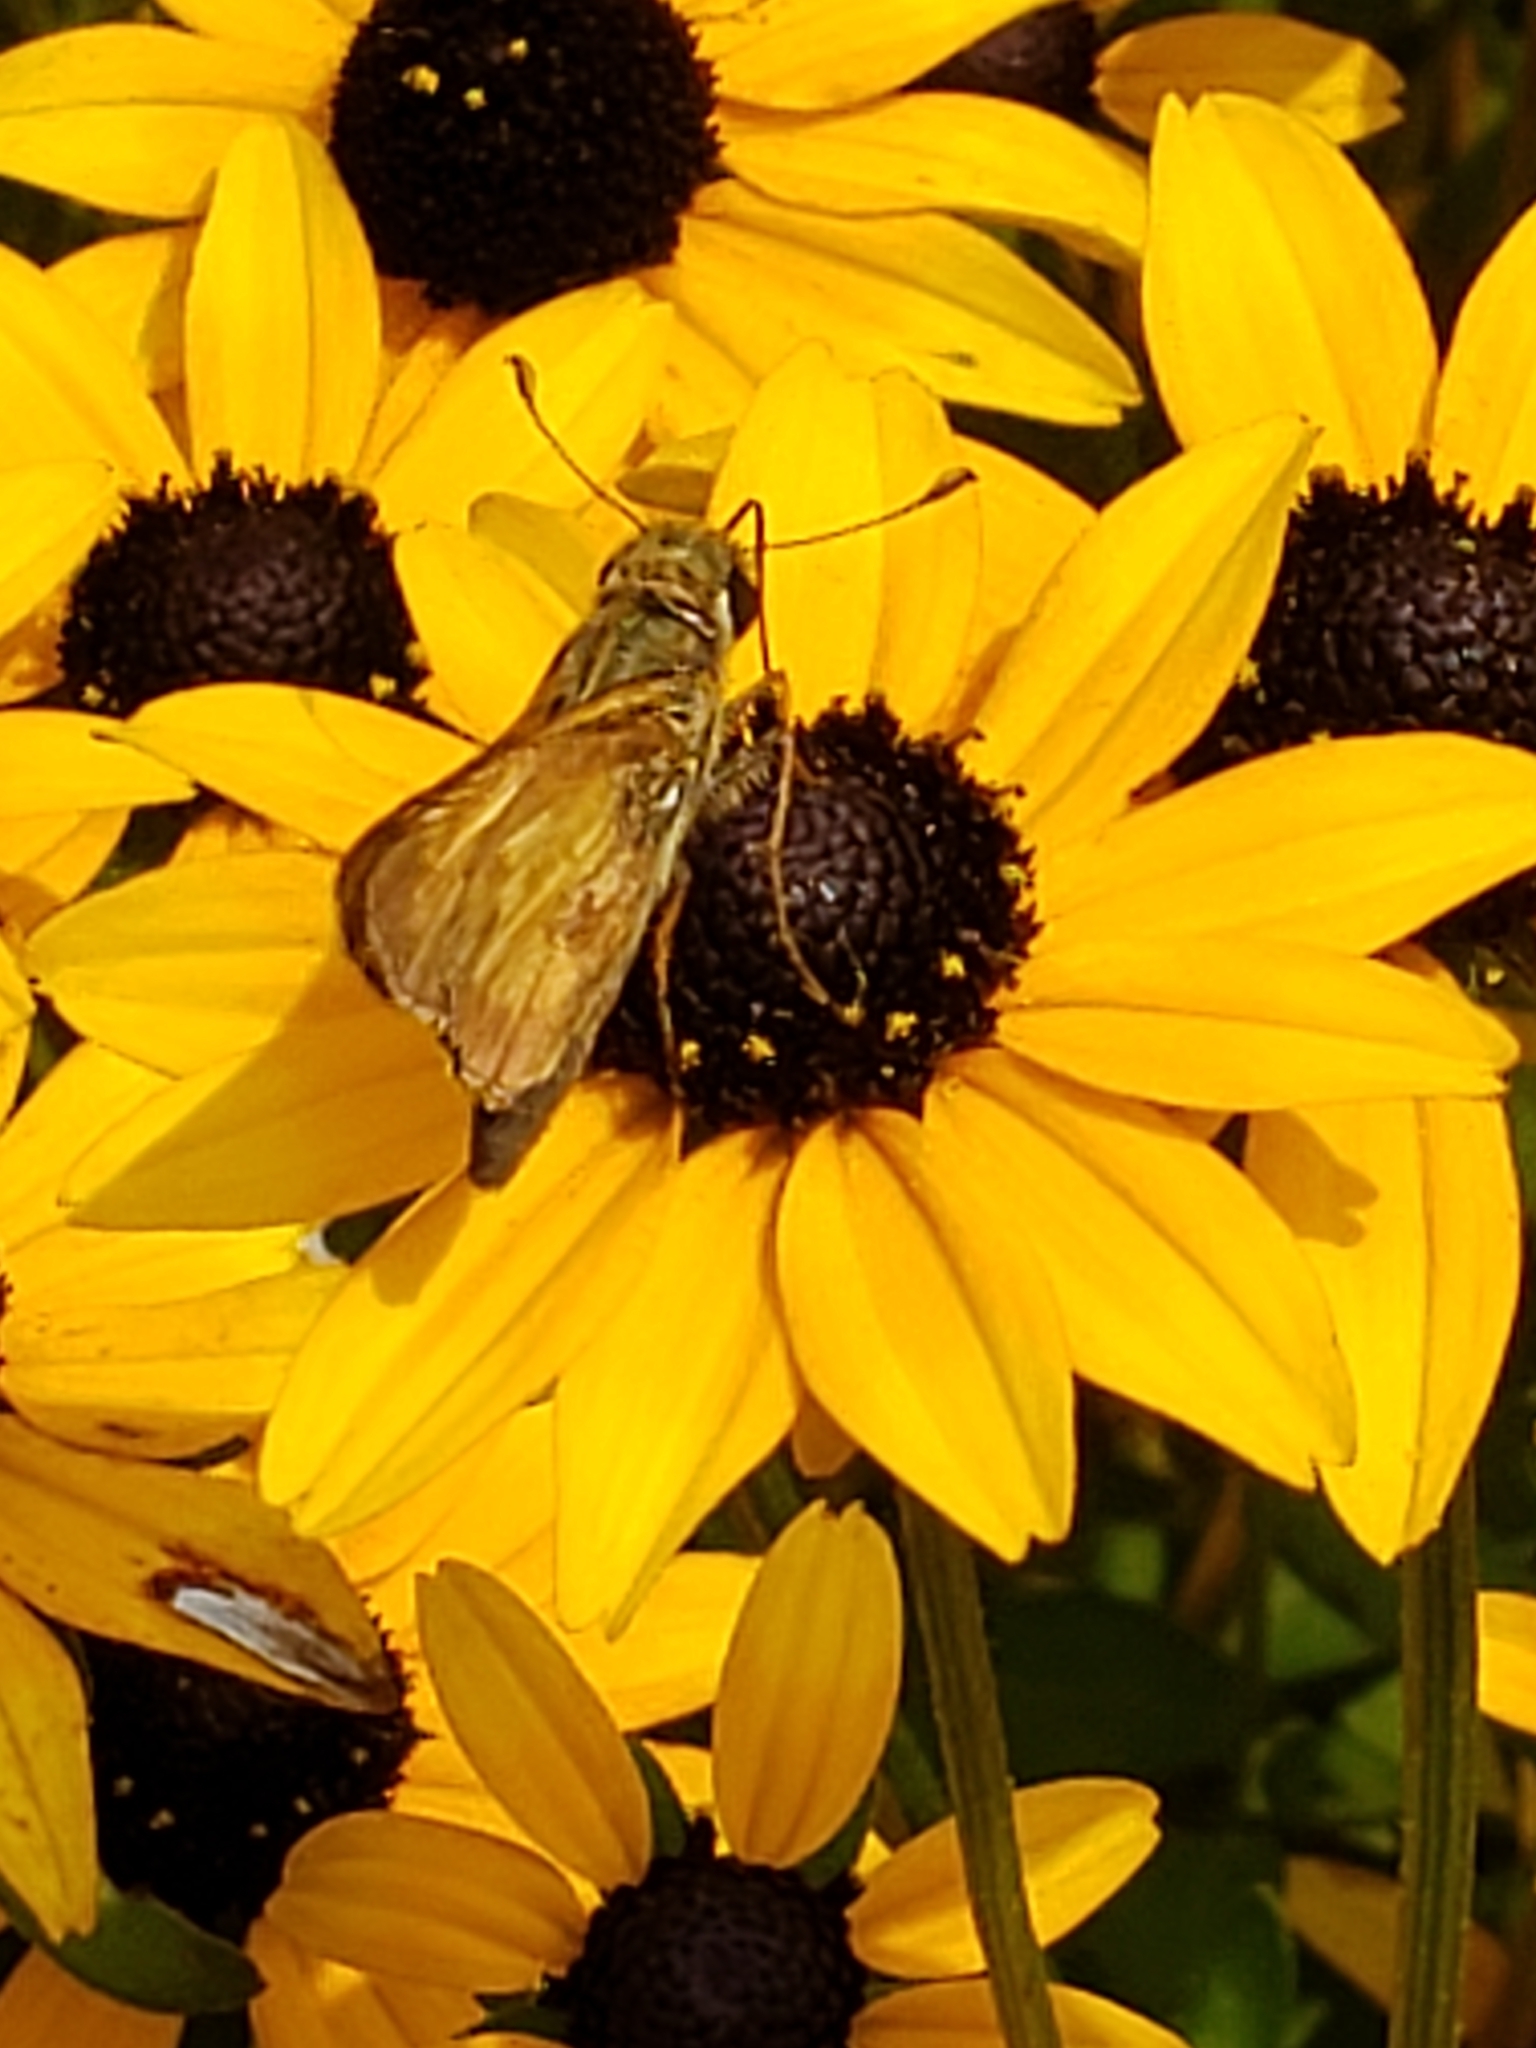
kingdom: Animalia
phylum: Arthropoda
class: Insecta
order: Lepidoptera
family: Hesperiidae
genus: Atalopedes
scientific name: Atalopedes
